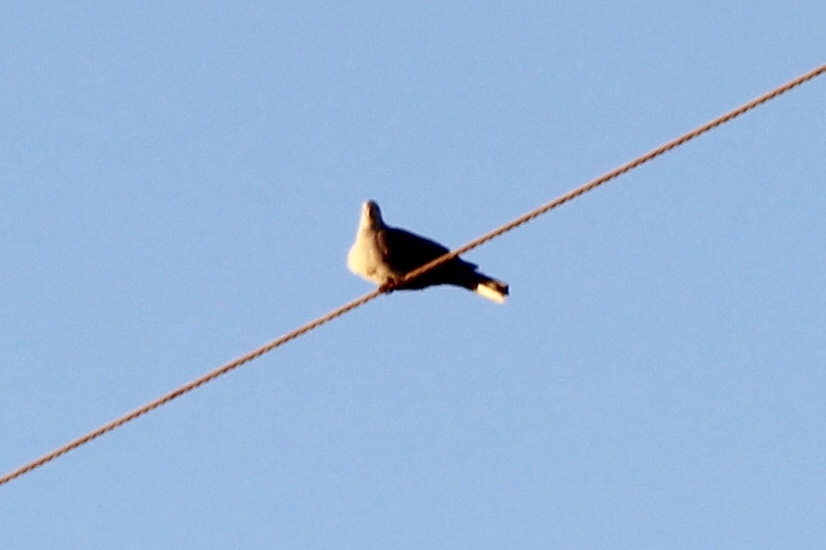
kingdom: Animalia
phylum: Chordata
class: Aves
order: Columbiformes
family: Columbidae
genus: Streptopelia
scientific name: Streptopelia decaocto
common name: Eurasian collared dove
